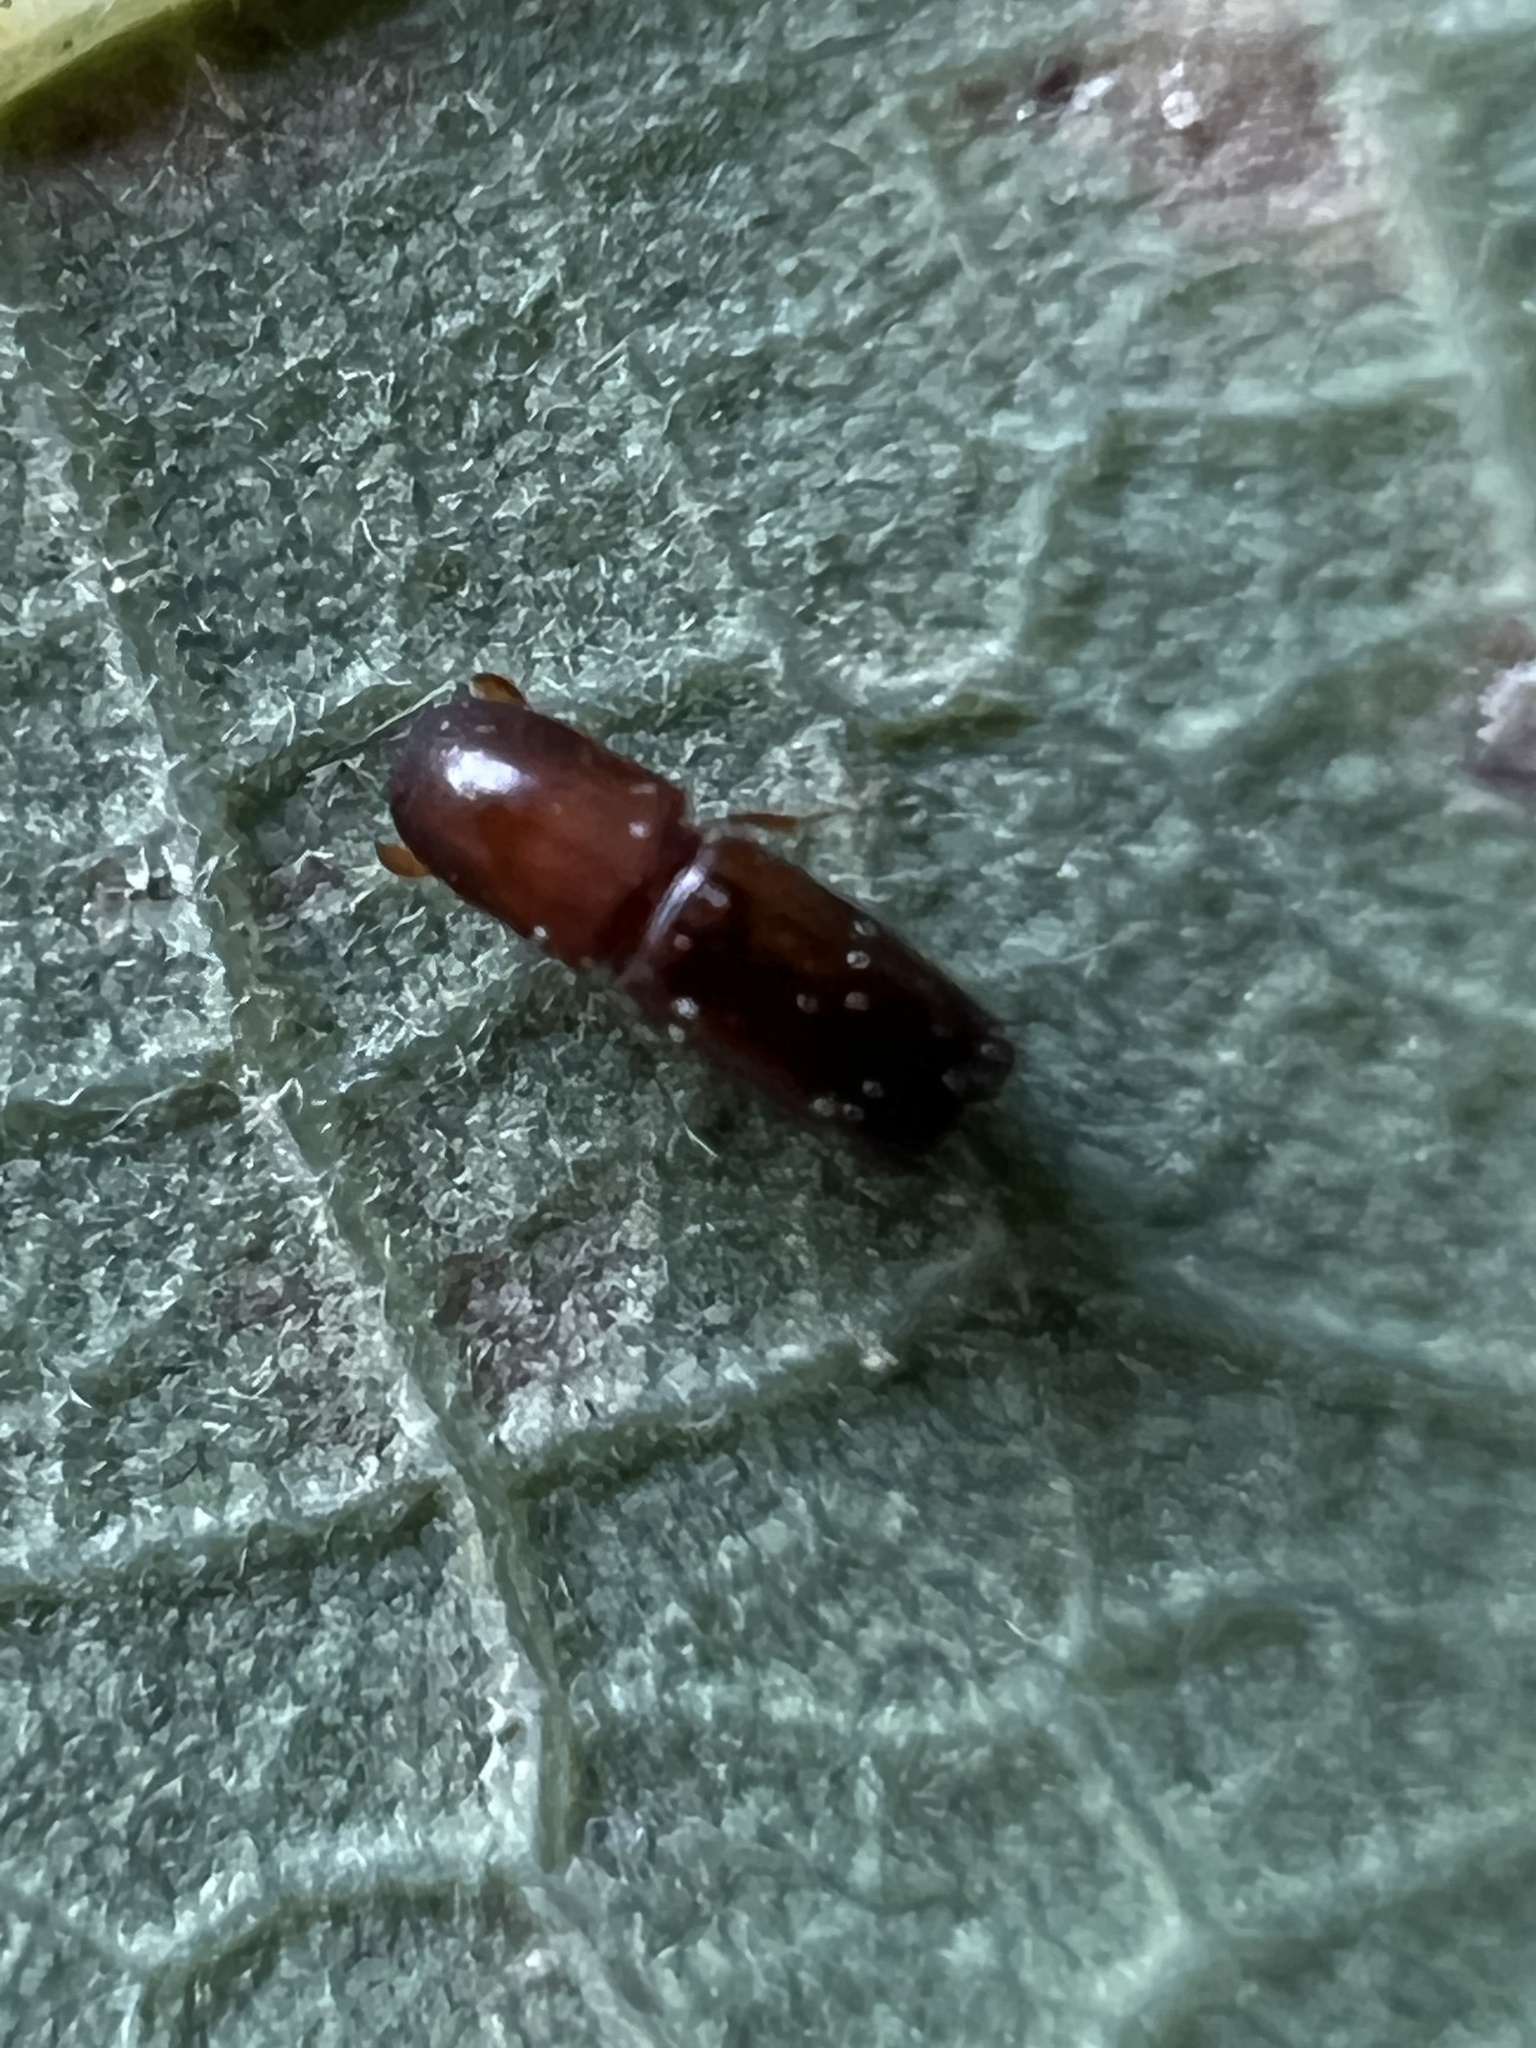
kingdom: Animalia
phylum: Arthropoda
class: Insecta
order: Coleoptera
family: Curculionidae
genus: Monarthrum
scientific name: Monarthrum mali
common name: Bark beetle
